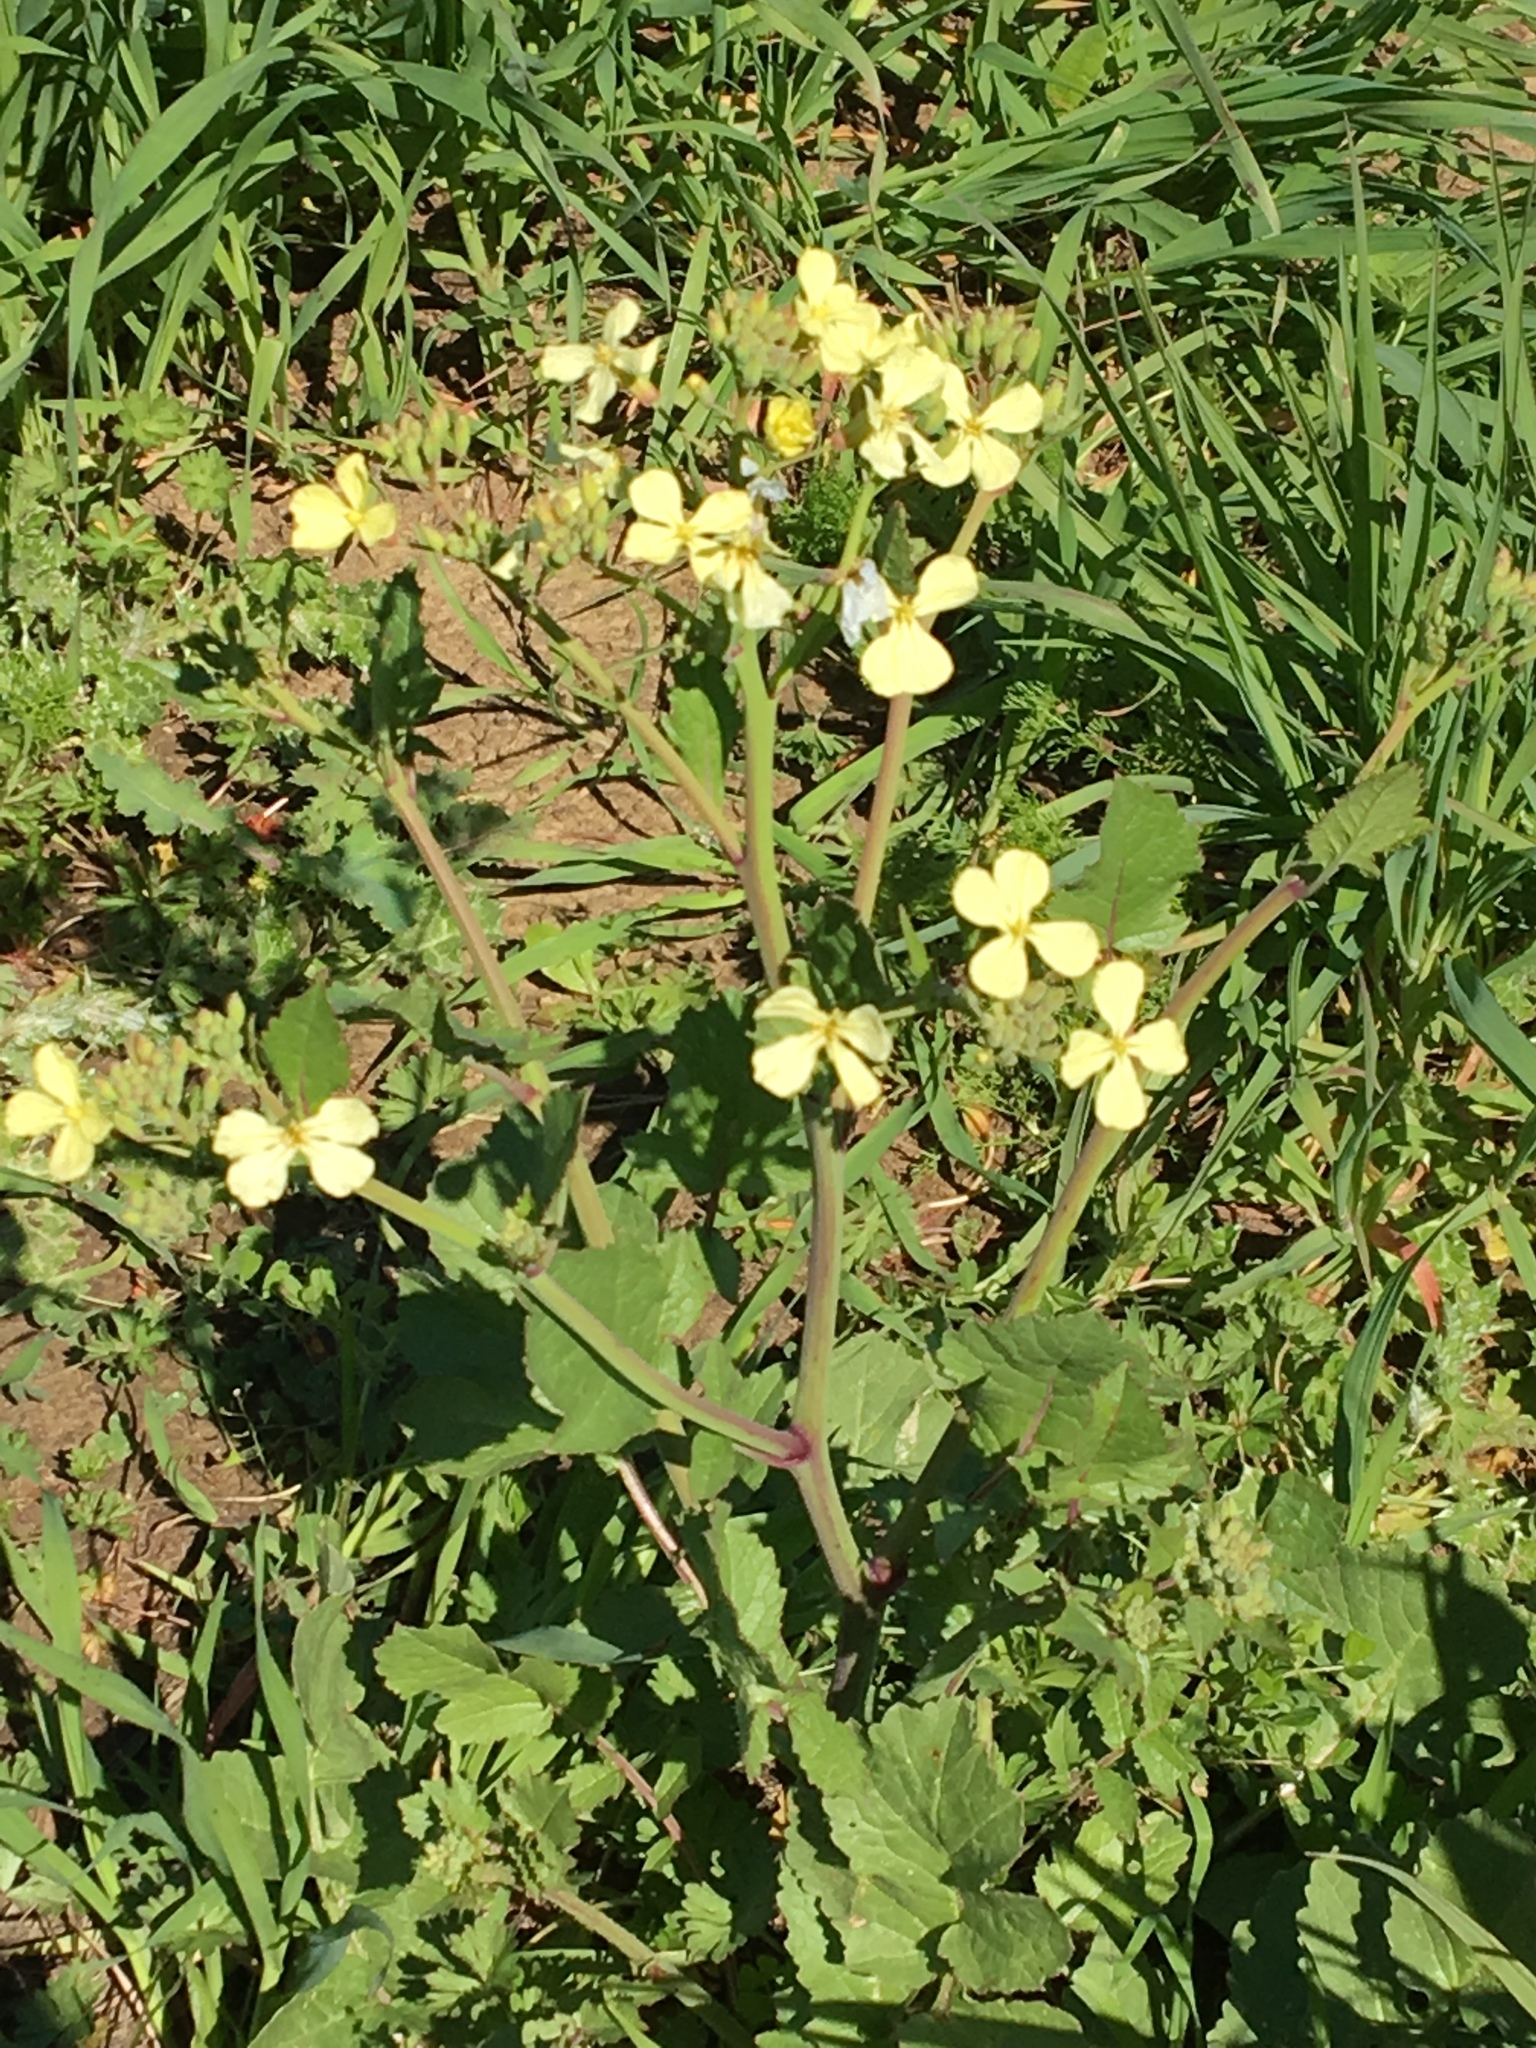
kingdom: Plantae
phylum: Tracheophyta
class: Magnoliopsida
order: Brassicales
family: Brassicaceae
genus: Raphanus
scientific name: Raphanus raphanistrum
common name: Wild radish
